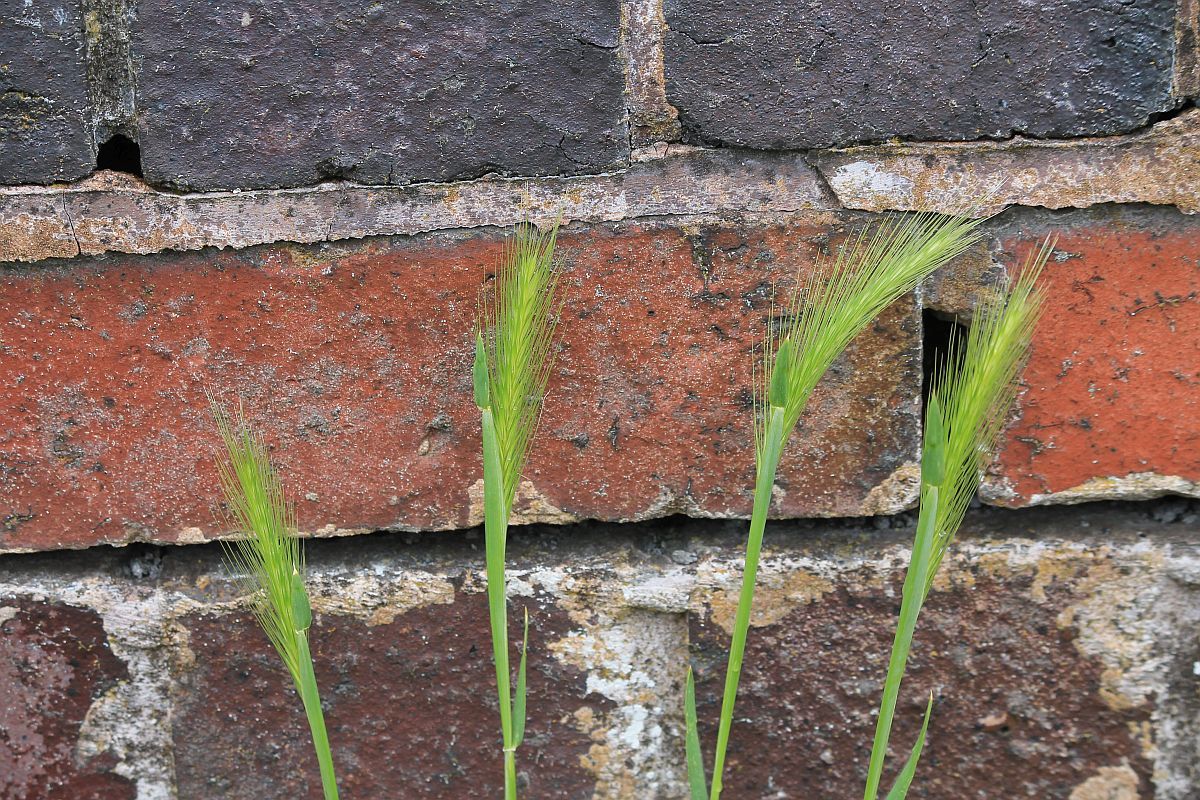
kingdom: Plantae
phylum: Tracheophyta
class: Liliopsida
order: Poales
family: Poaceae
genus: Hordeum
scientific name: Hordeum murinum
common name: Wall barley
